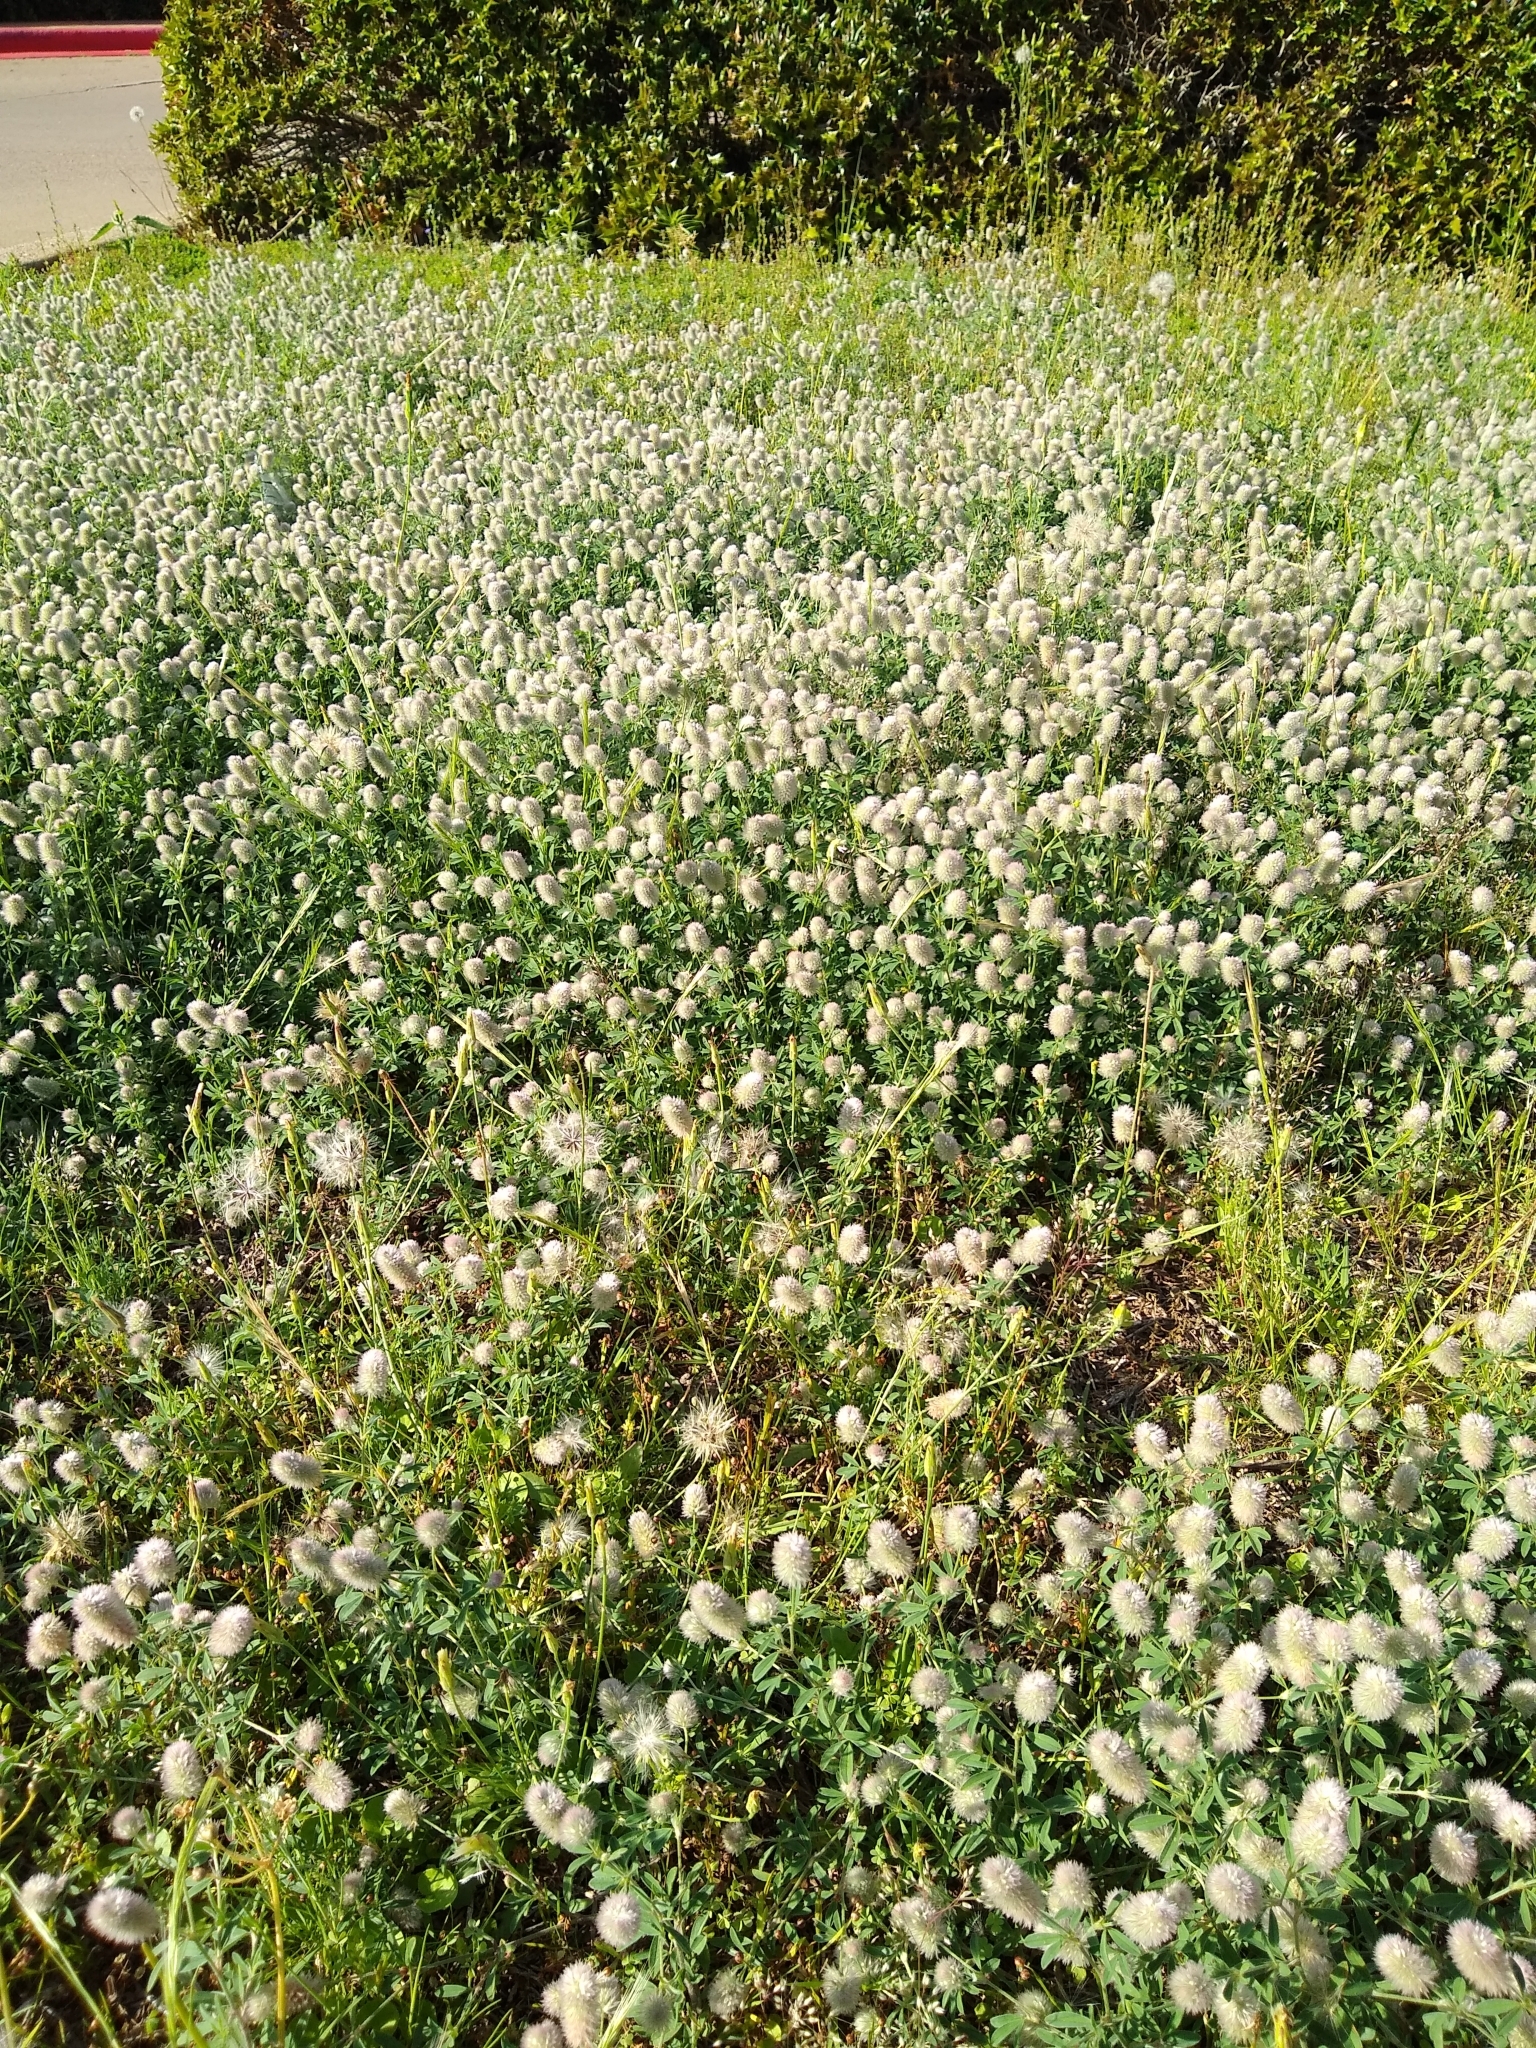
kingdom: Plantae
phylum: Tracheophyta
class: Magnoliopsida
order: Fabales
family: Fabaceae
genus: Trifolium
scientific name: Trifolium arvense
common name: Hare's-foot clover
